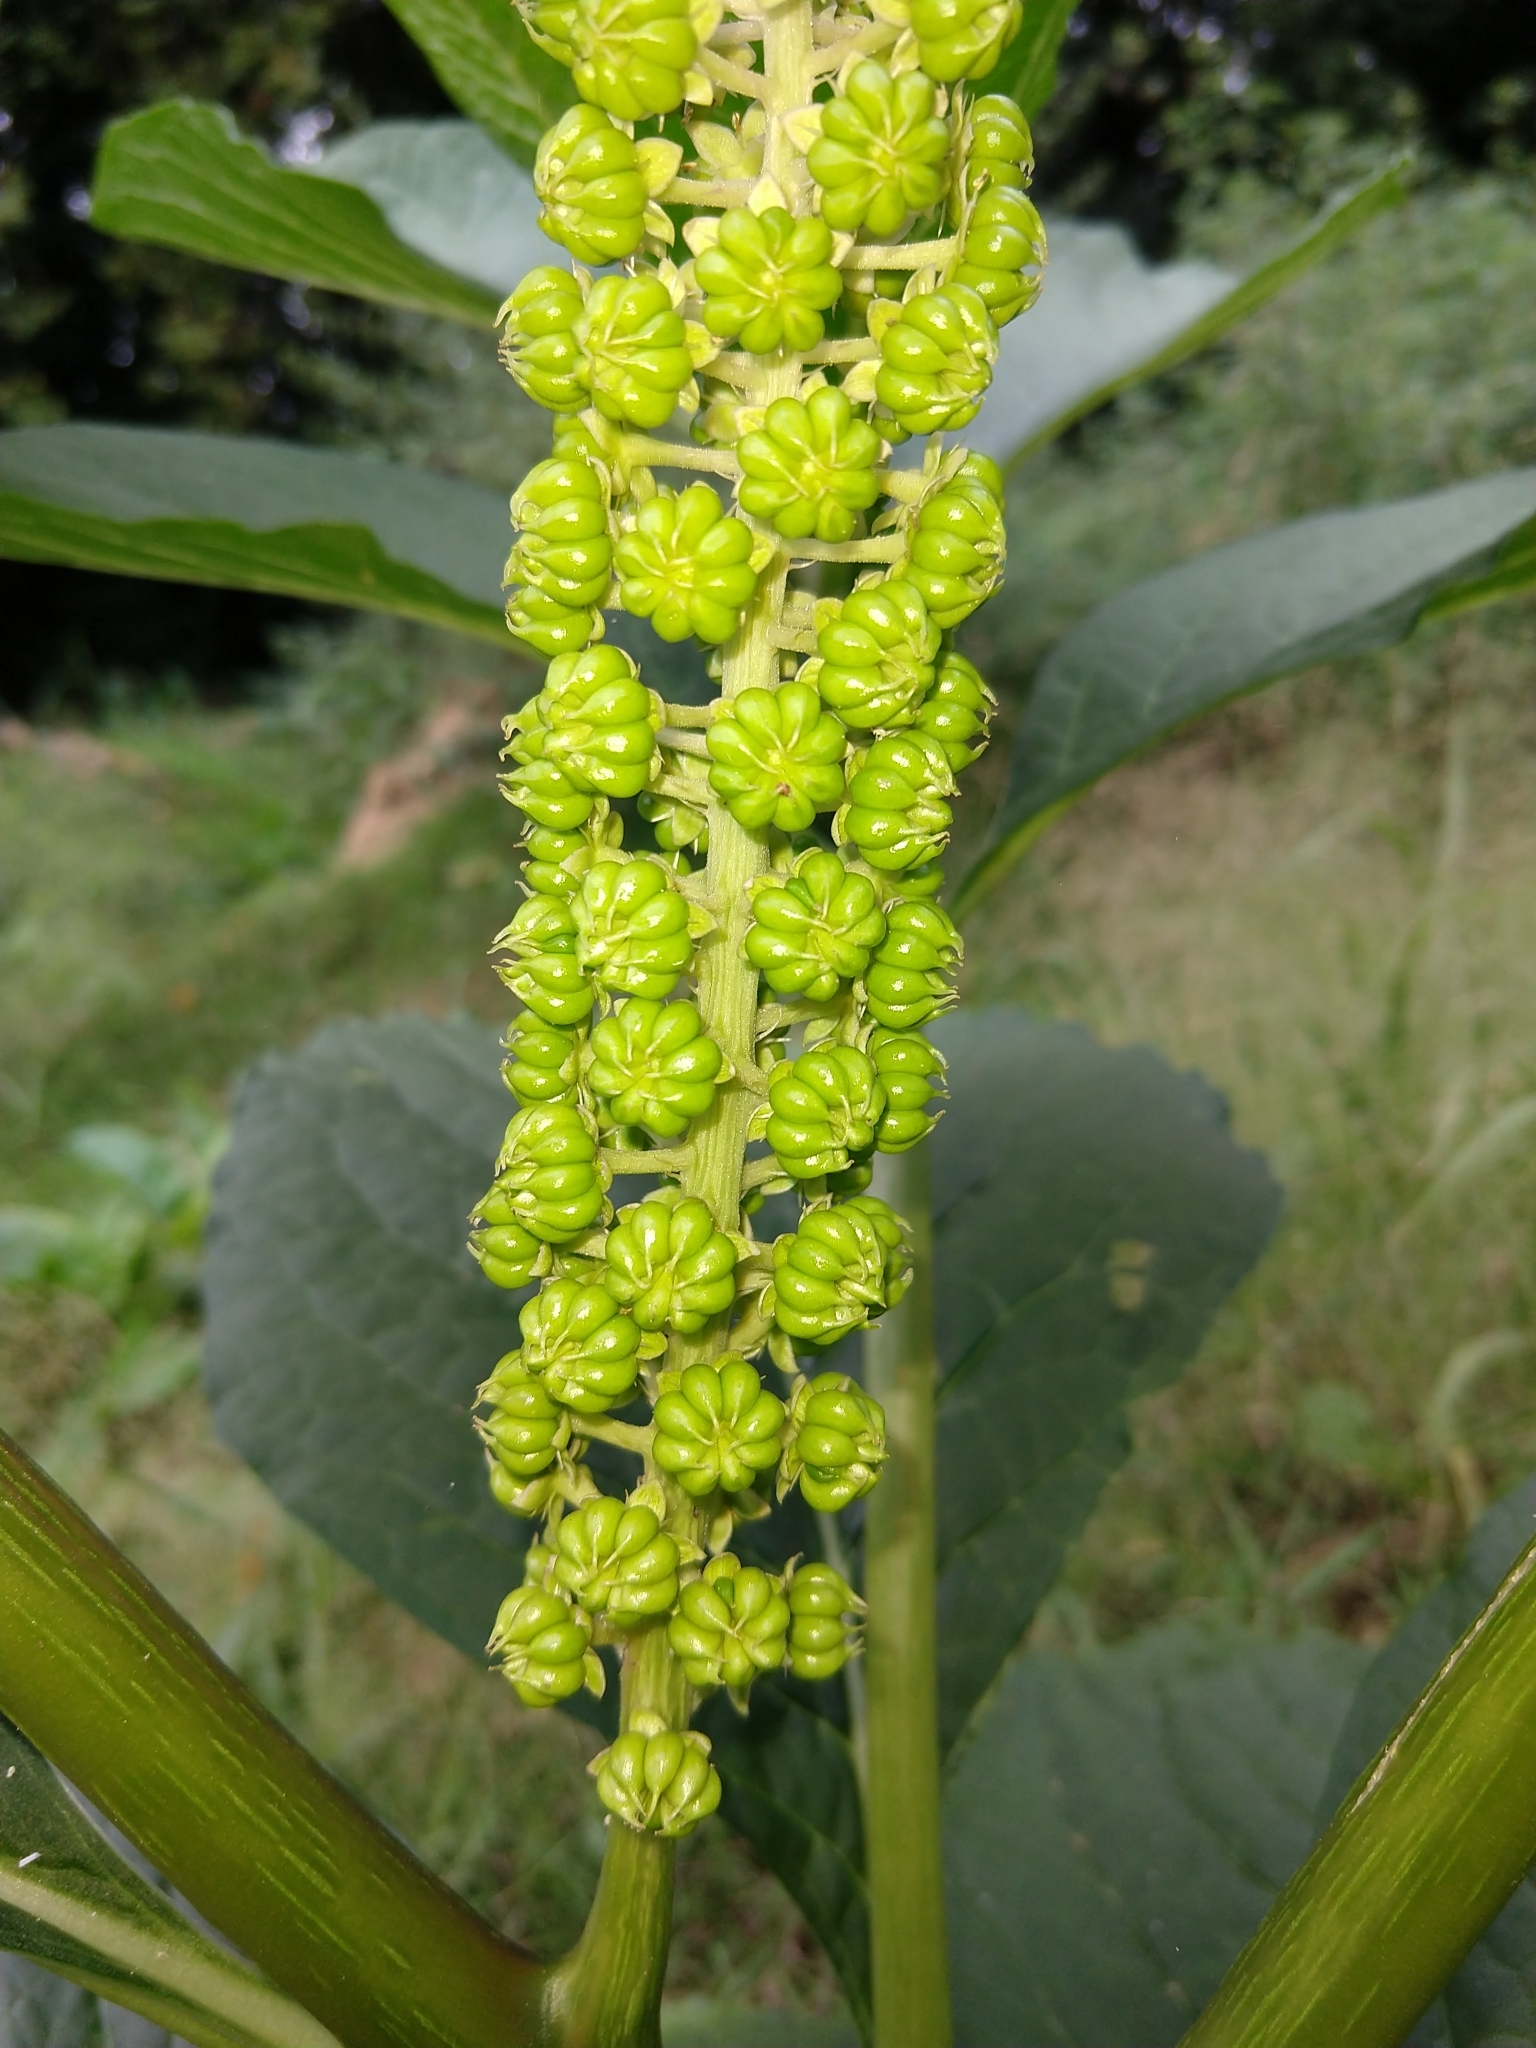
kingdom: Plantae
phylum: Tracheophyta
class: Magnoliopsida
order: Caryophyllales
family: Phytolaccaceae
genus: Phytolacca
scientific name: Phytolacca acinosa
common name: Indian pokeweed
